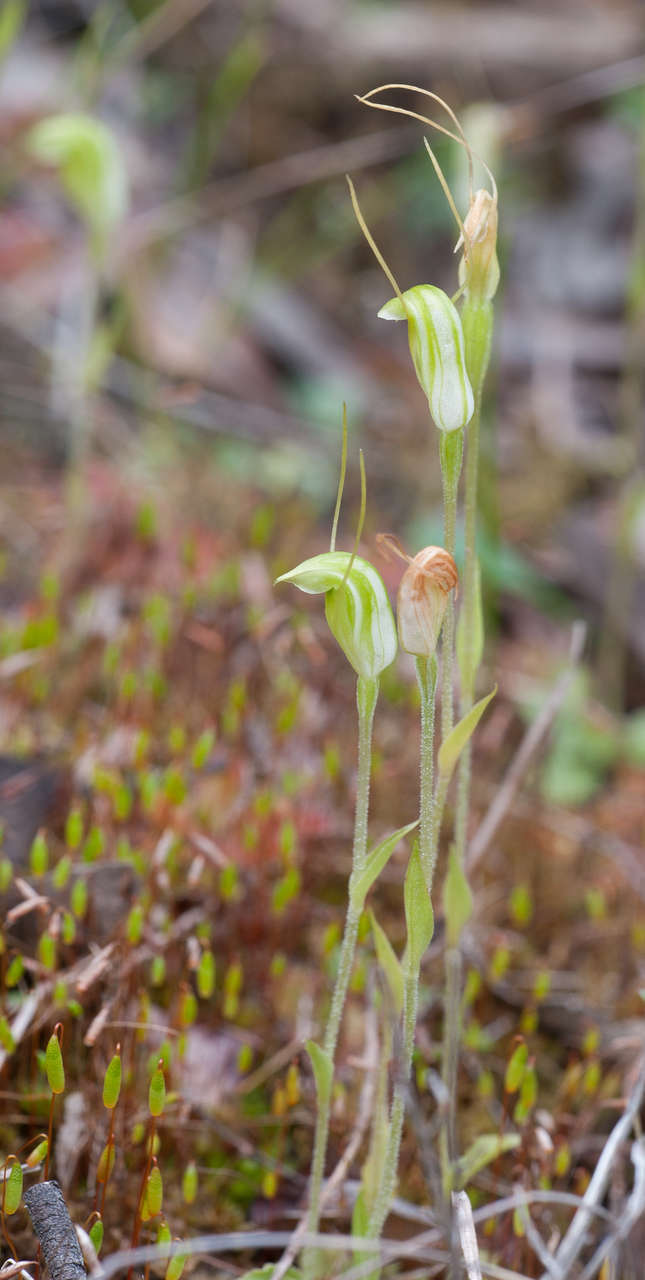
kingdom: Plantae
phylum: Tracheophyta
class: Liliopsida
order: Asparagales
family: Orchidaceae
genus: Pterostylis
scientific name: Pterostylis nana
